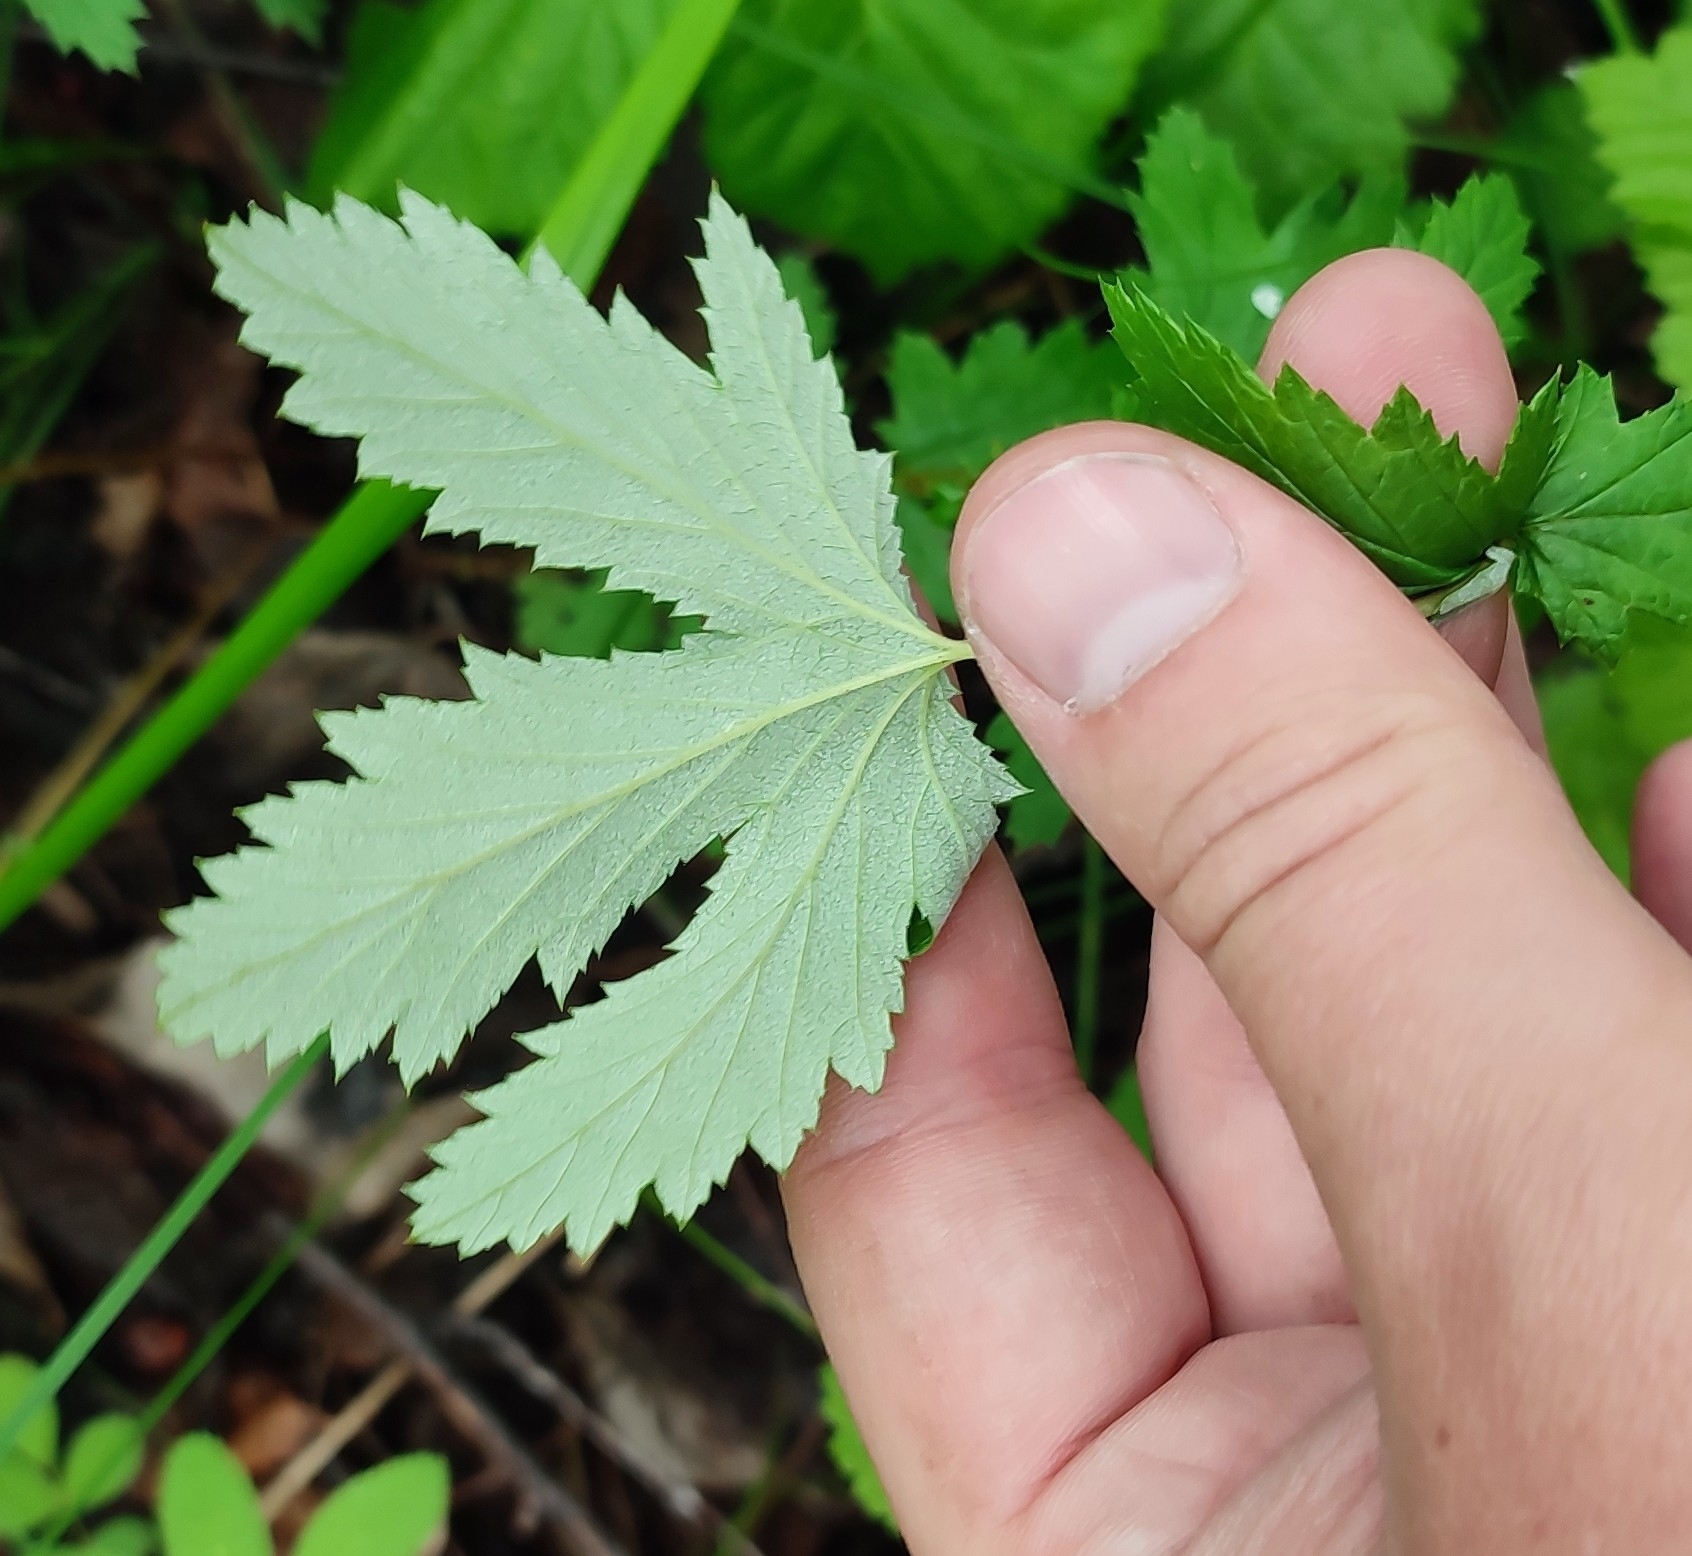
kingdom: Plantae
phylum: Tracheophyta
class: Magnoliopsida
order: Rosales
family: Rosaceae
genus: Filipendula
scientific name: Filipendula ulmaria
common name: Meadowsweet
